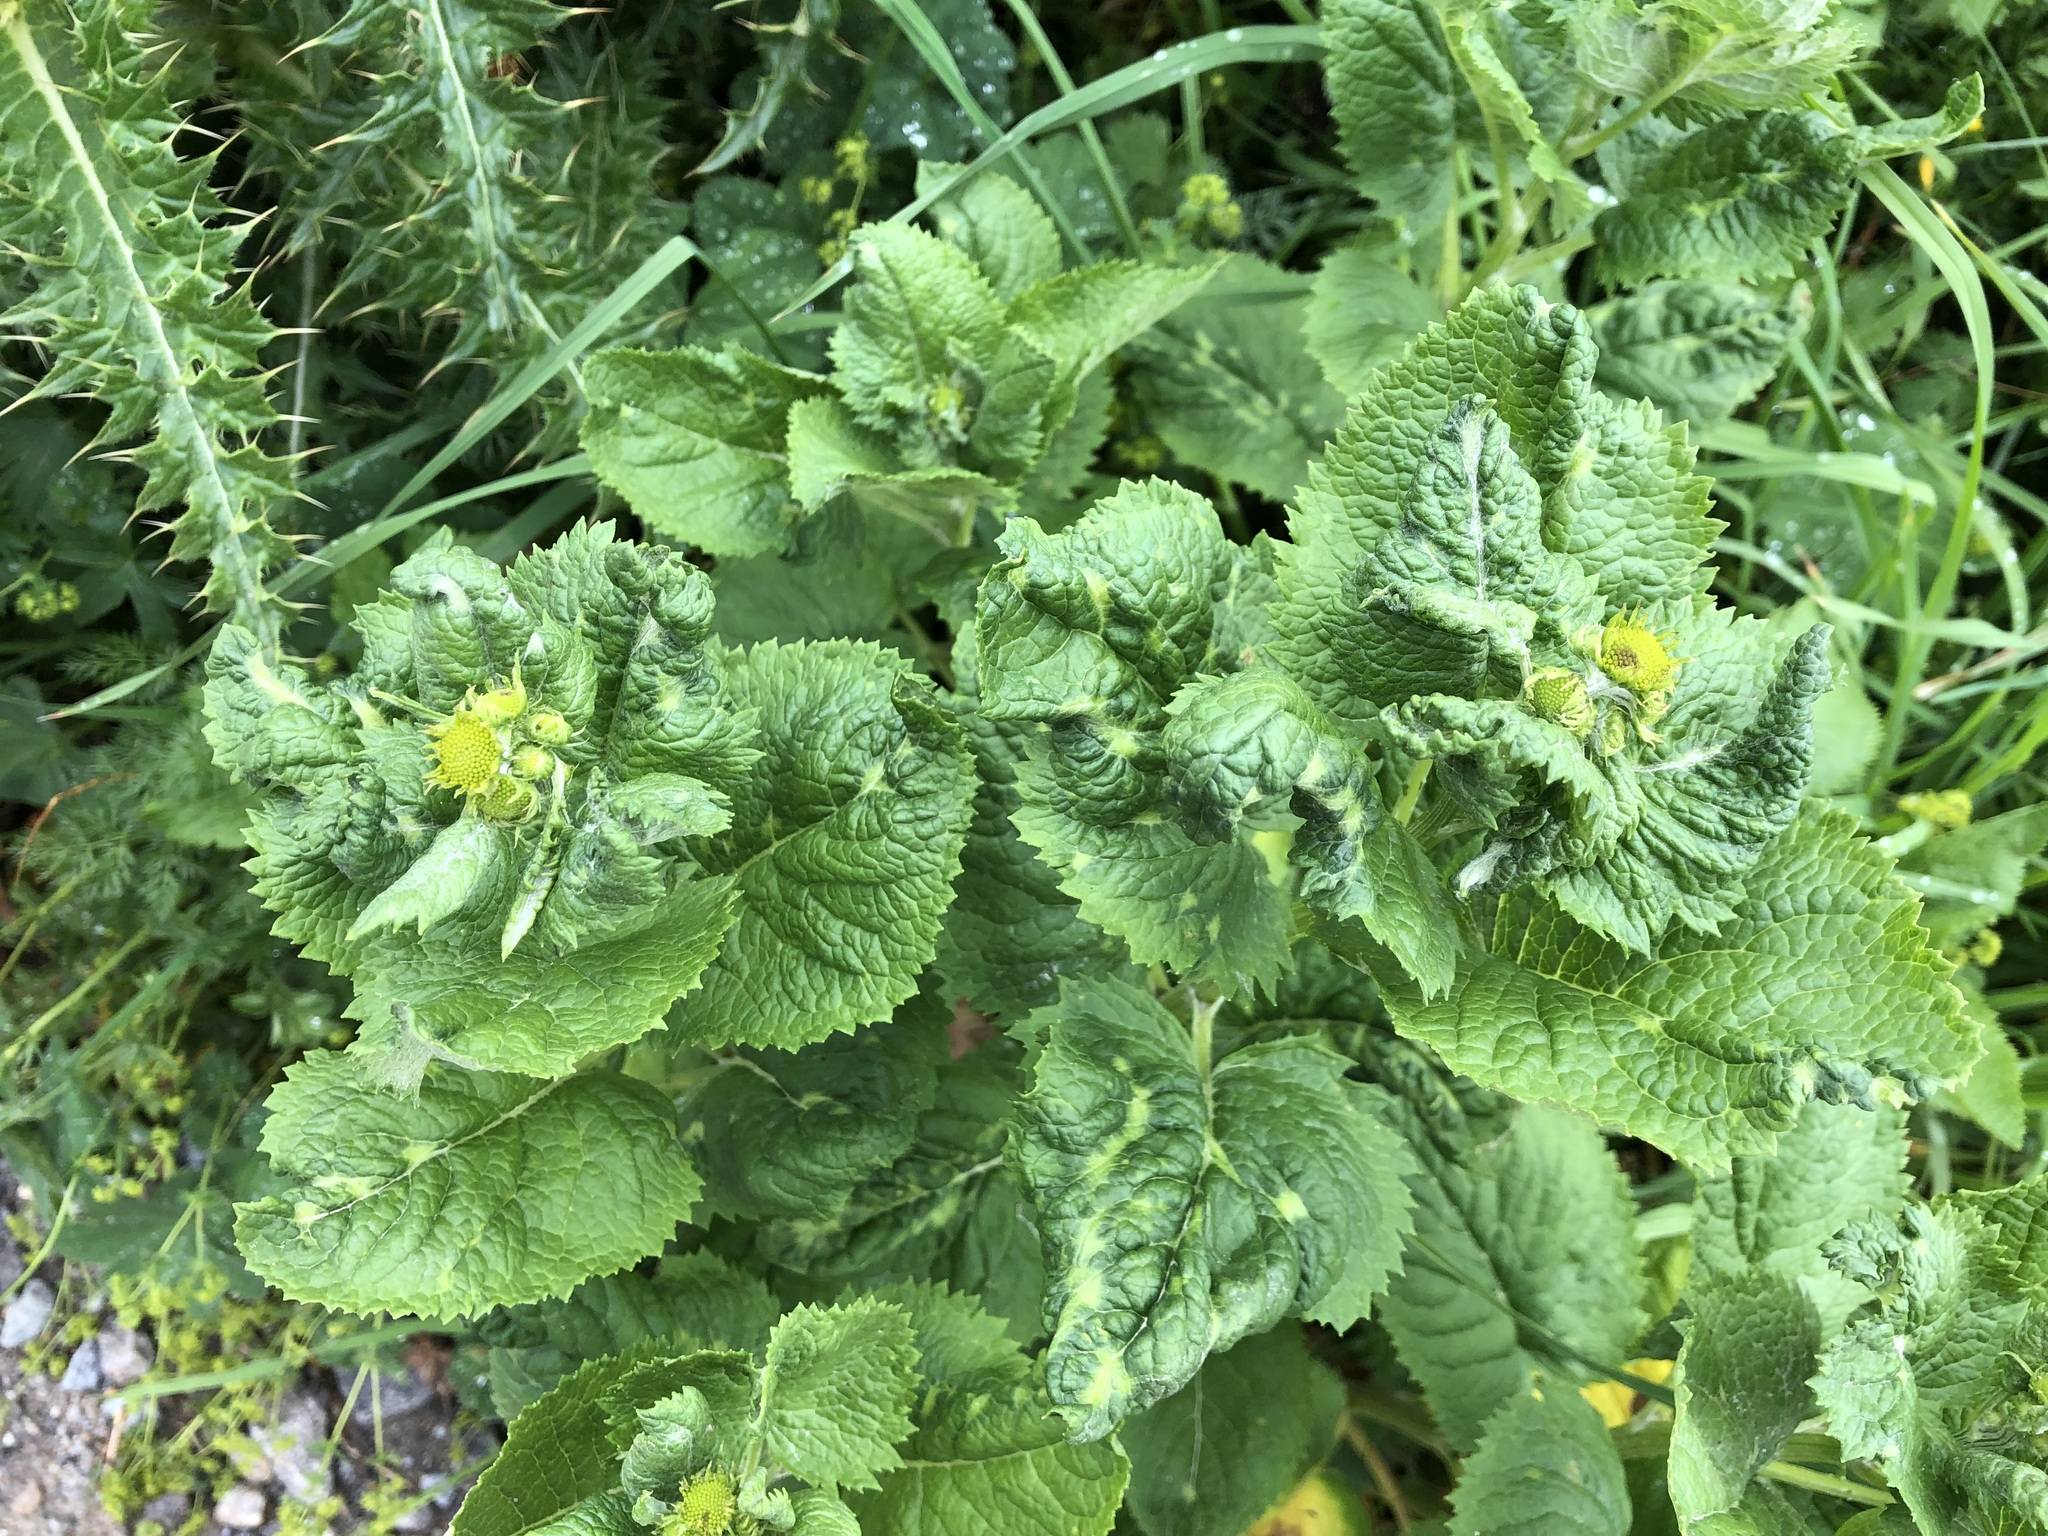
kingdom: Plantae
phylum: Tracheophyta
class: Magnoliopsida
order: Asterales
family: Asteraceae
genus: Jacobaea
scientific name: Jacobaea alpina
